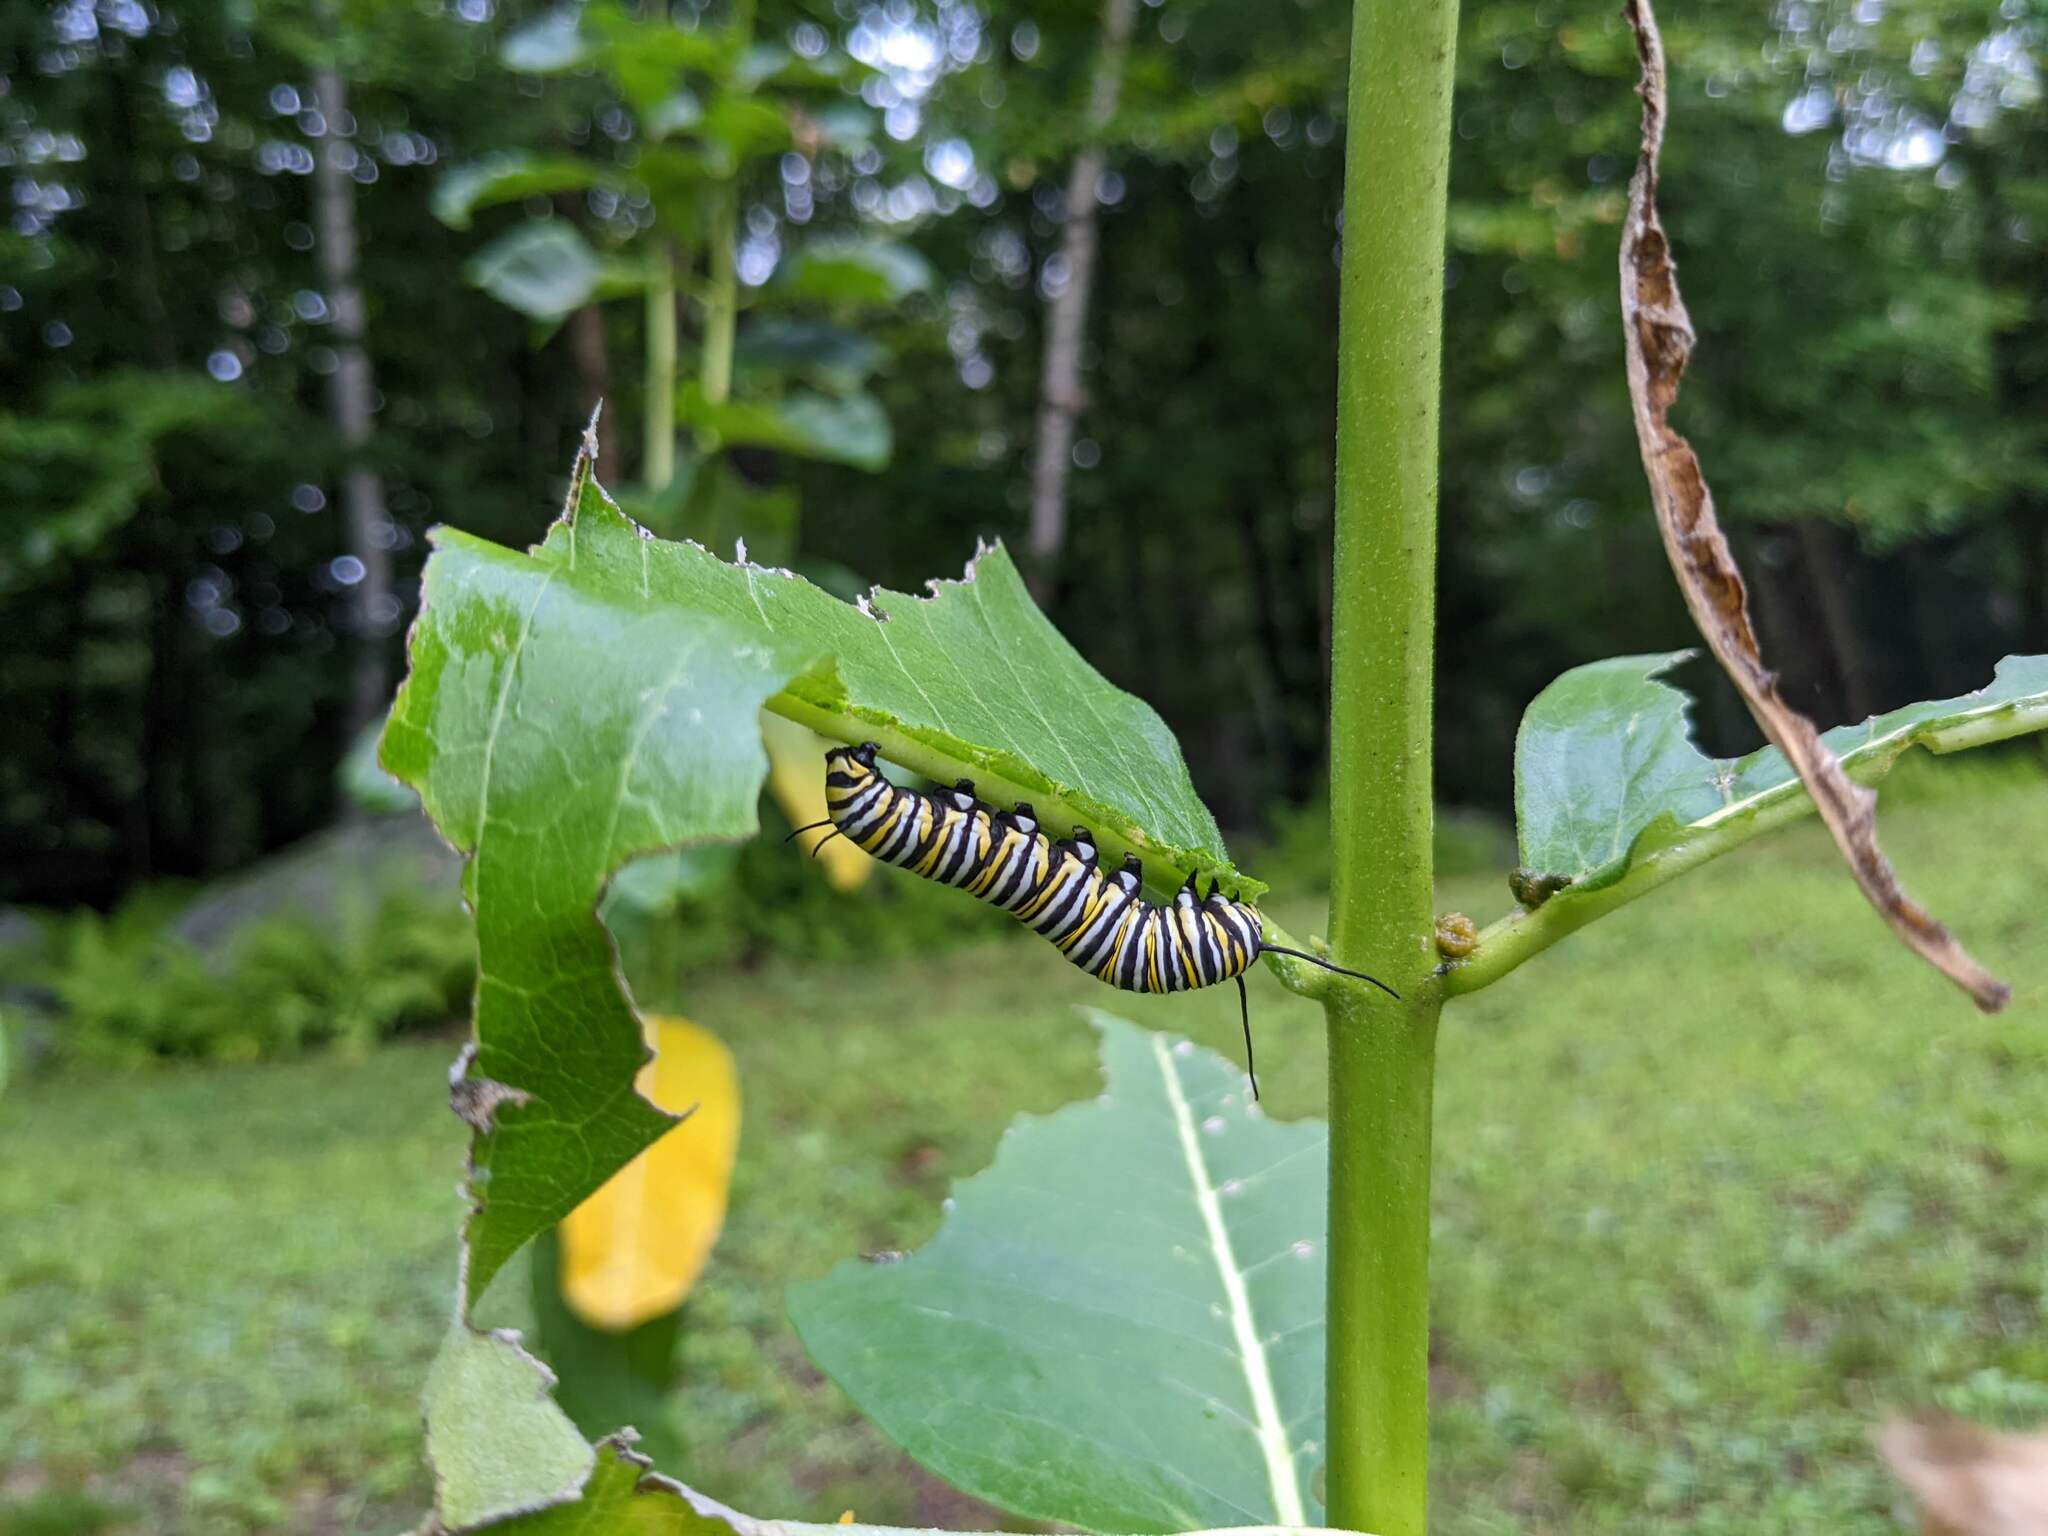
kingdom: Animalia
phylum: Arthropoda
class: Insecta
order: Lepidoptera
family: Nymphalidae
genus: Danaus
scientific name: Danaus plexippus
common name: Monarch
